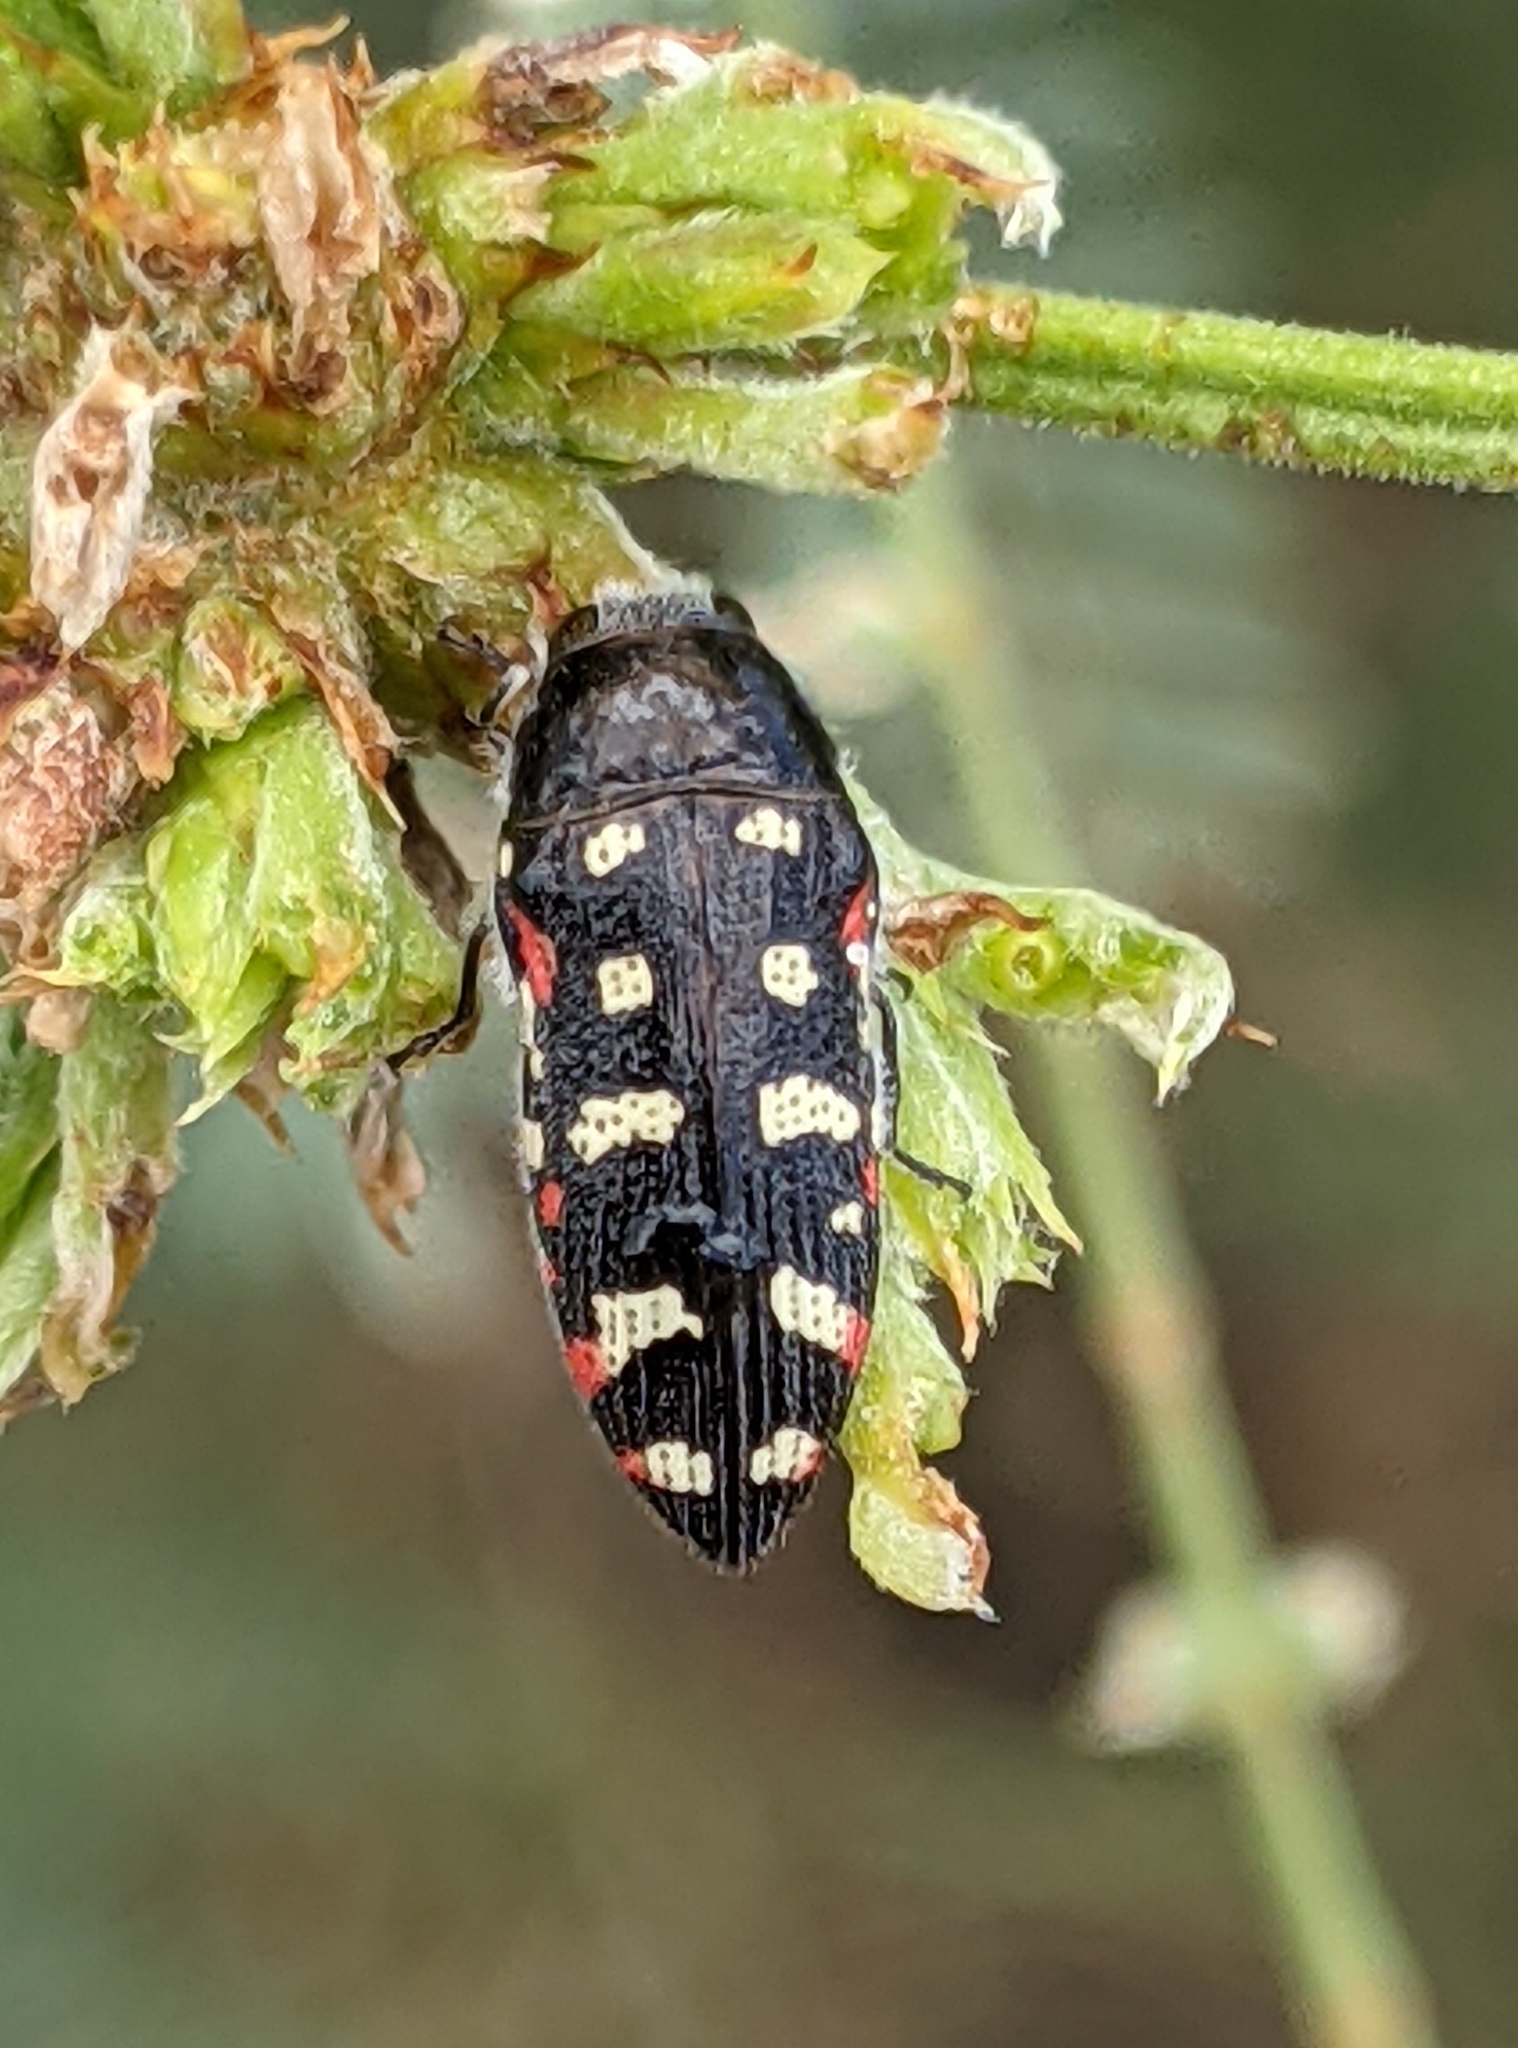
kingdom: Animalia
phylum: Arthropoda
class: Insecta
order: Coleoptera
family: Buprestidae
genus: Acmaeodera
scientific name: Acmaeodera gibbula
